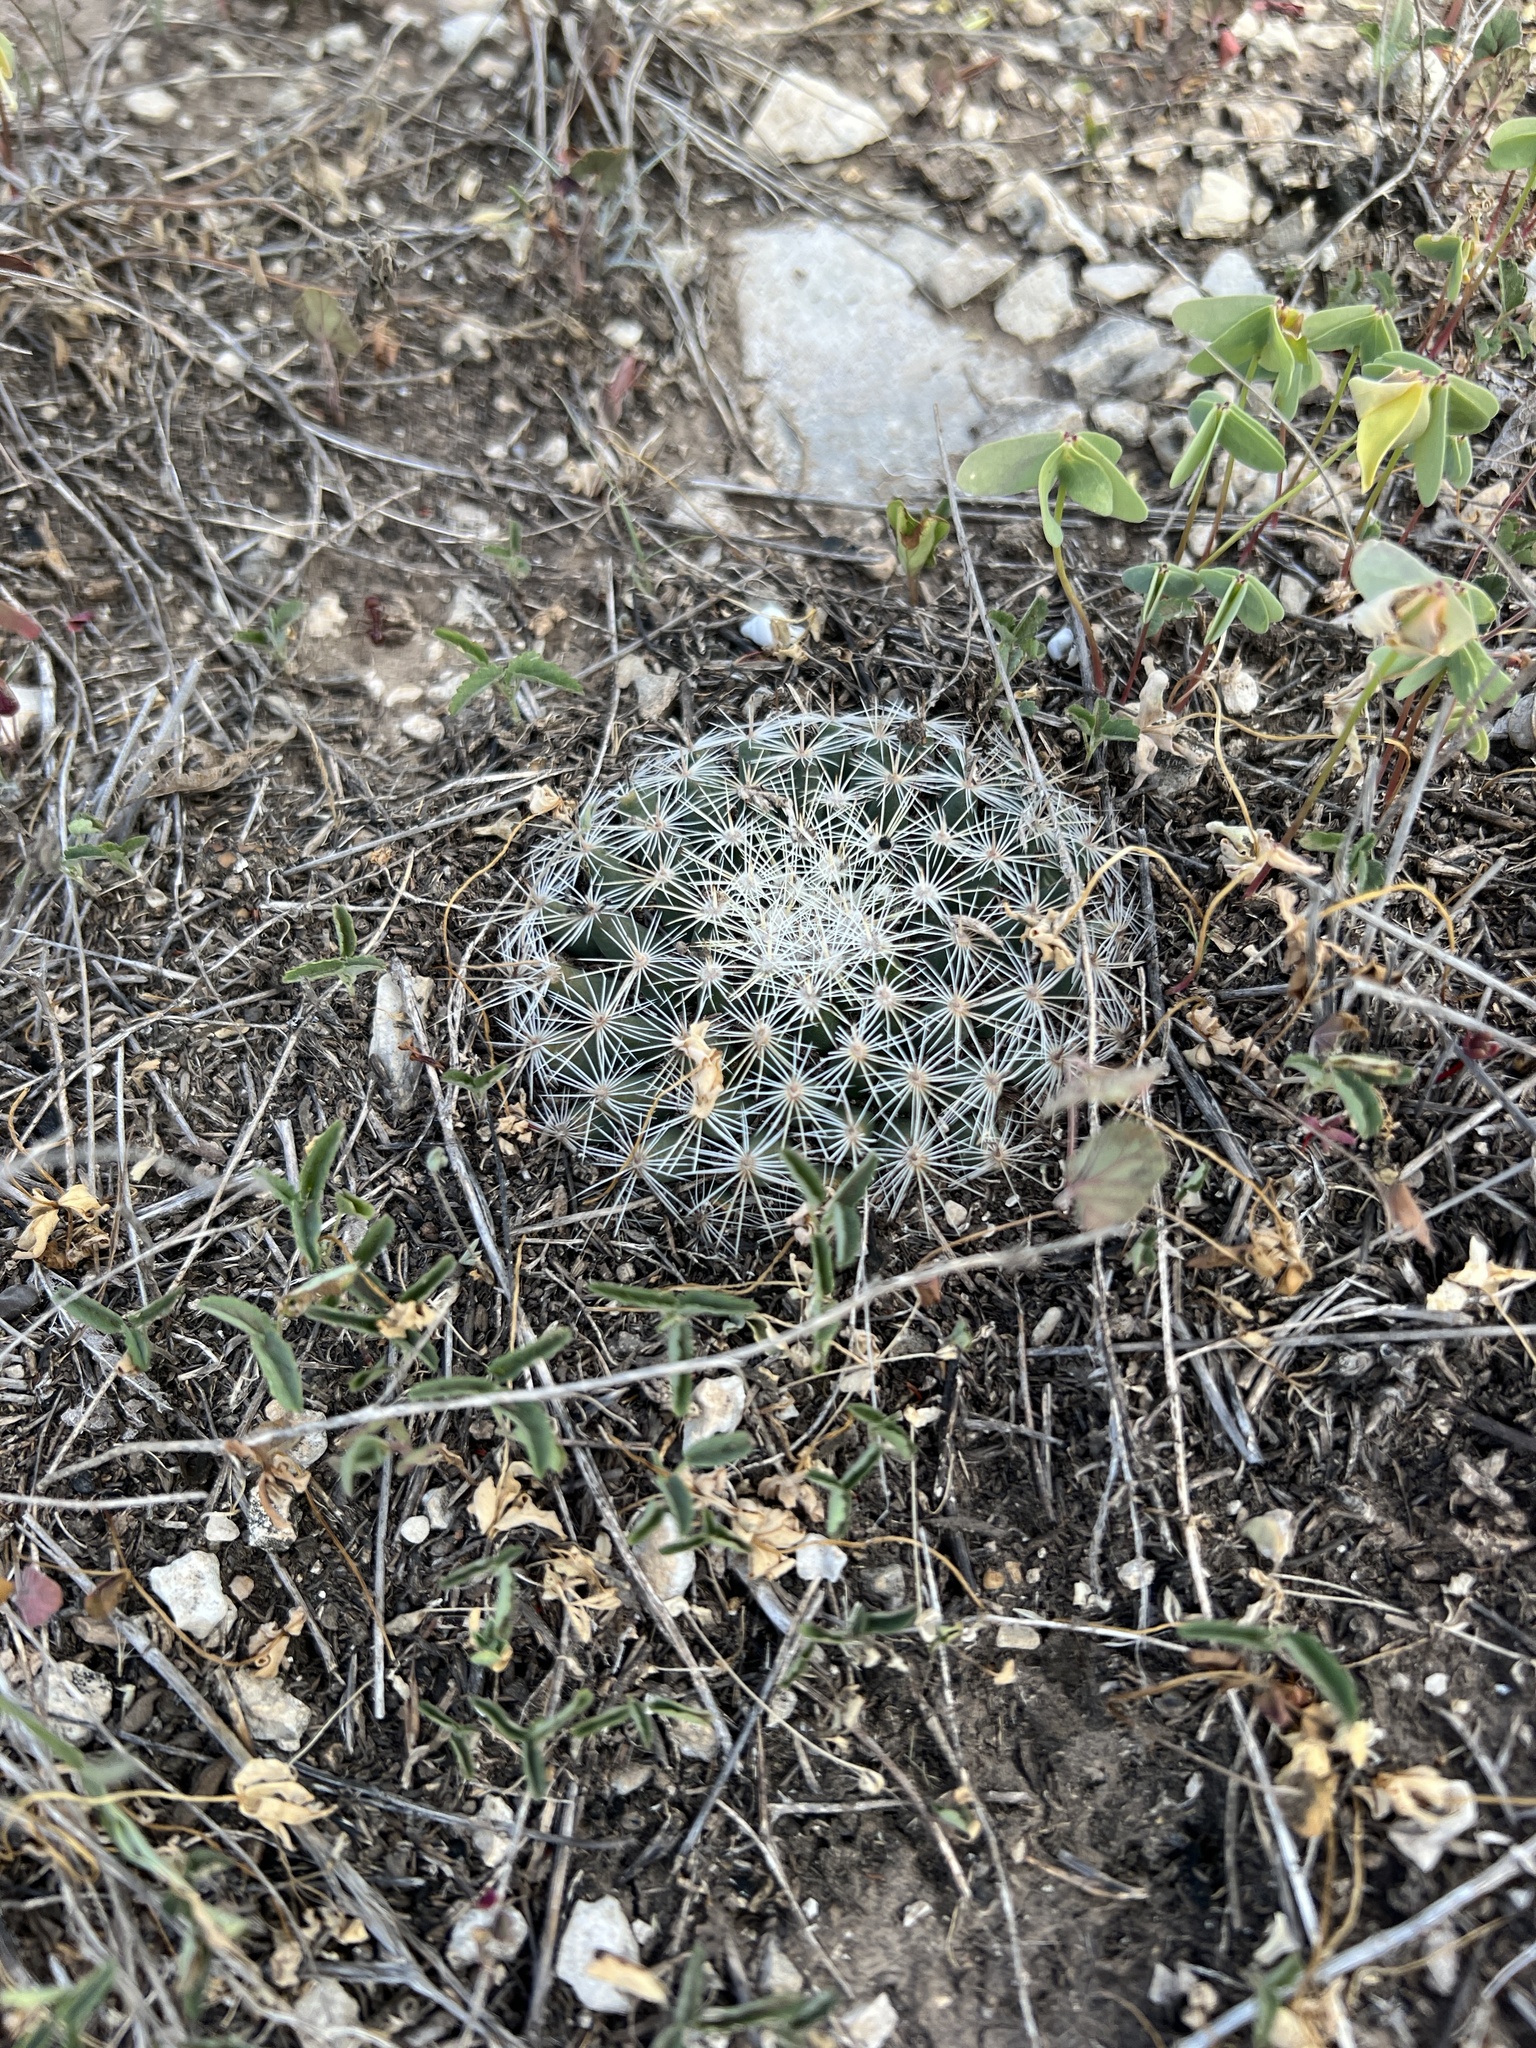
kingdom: Plantae
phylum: Tracheophyta
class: Magnoliopsida
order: Caryophyllales
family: Cactaceae
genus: Mammillaria
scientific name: Mammillaria heyderi
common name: Little nipple cactus
